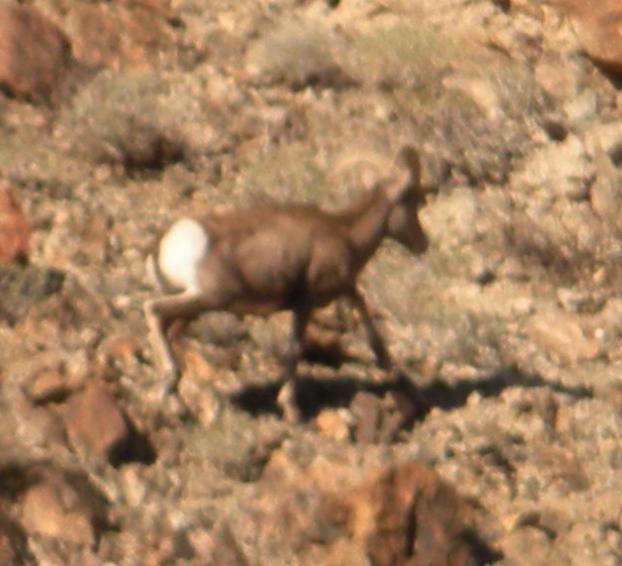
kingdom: Animalia
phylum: Chordata
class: Mammalia
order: Artiodactyla
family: Bovidae
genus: Ovis
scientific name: Ovis canadensis
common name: Bighorn sheep
